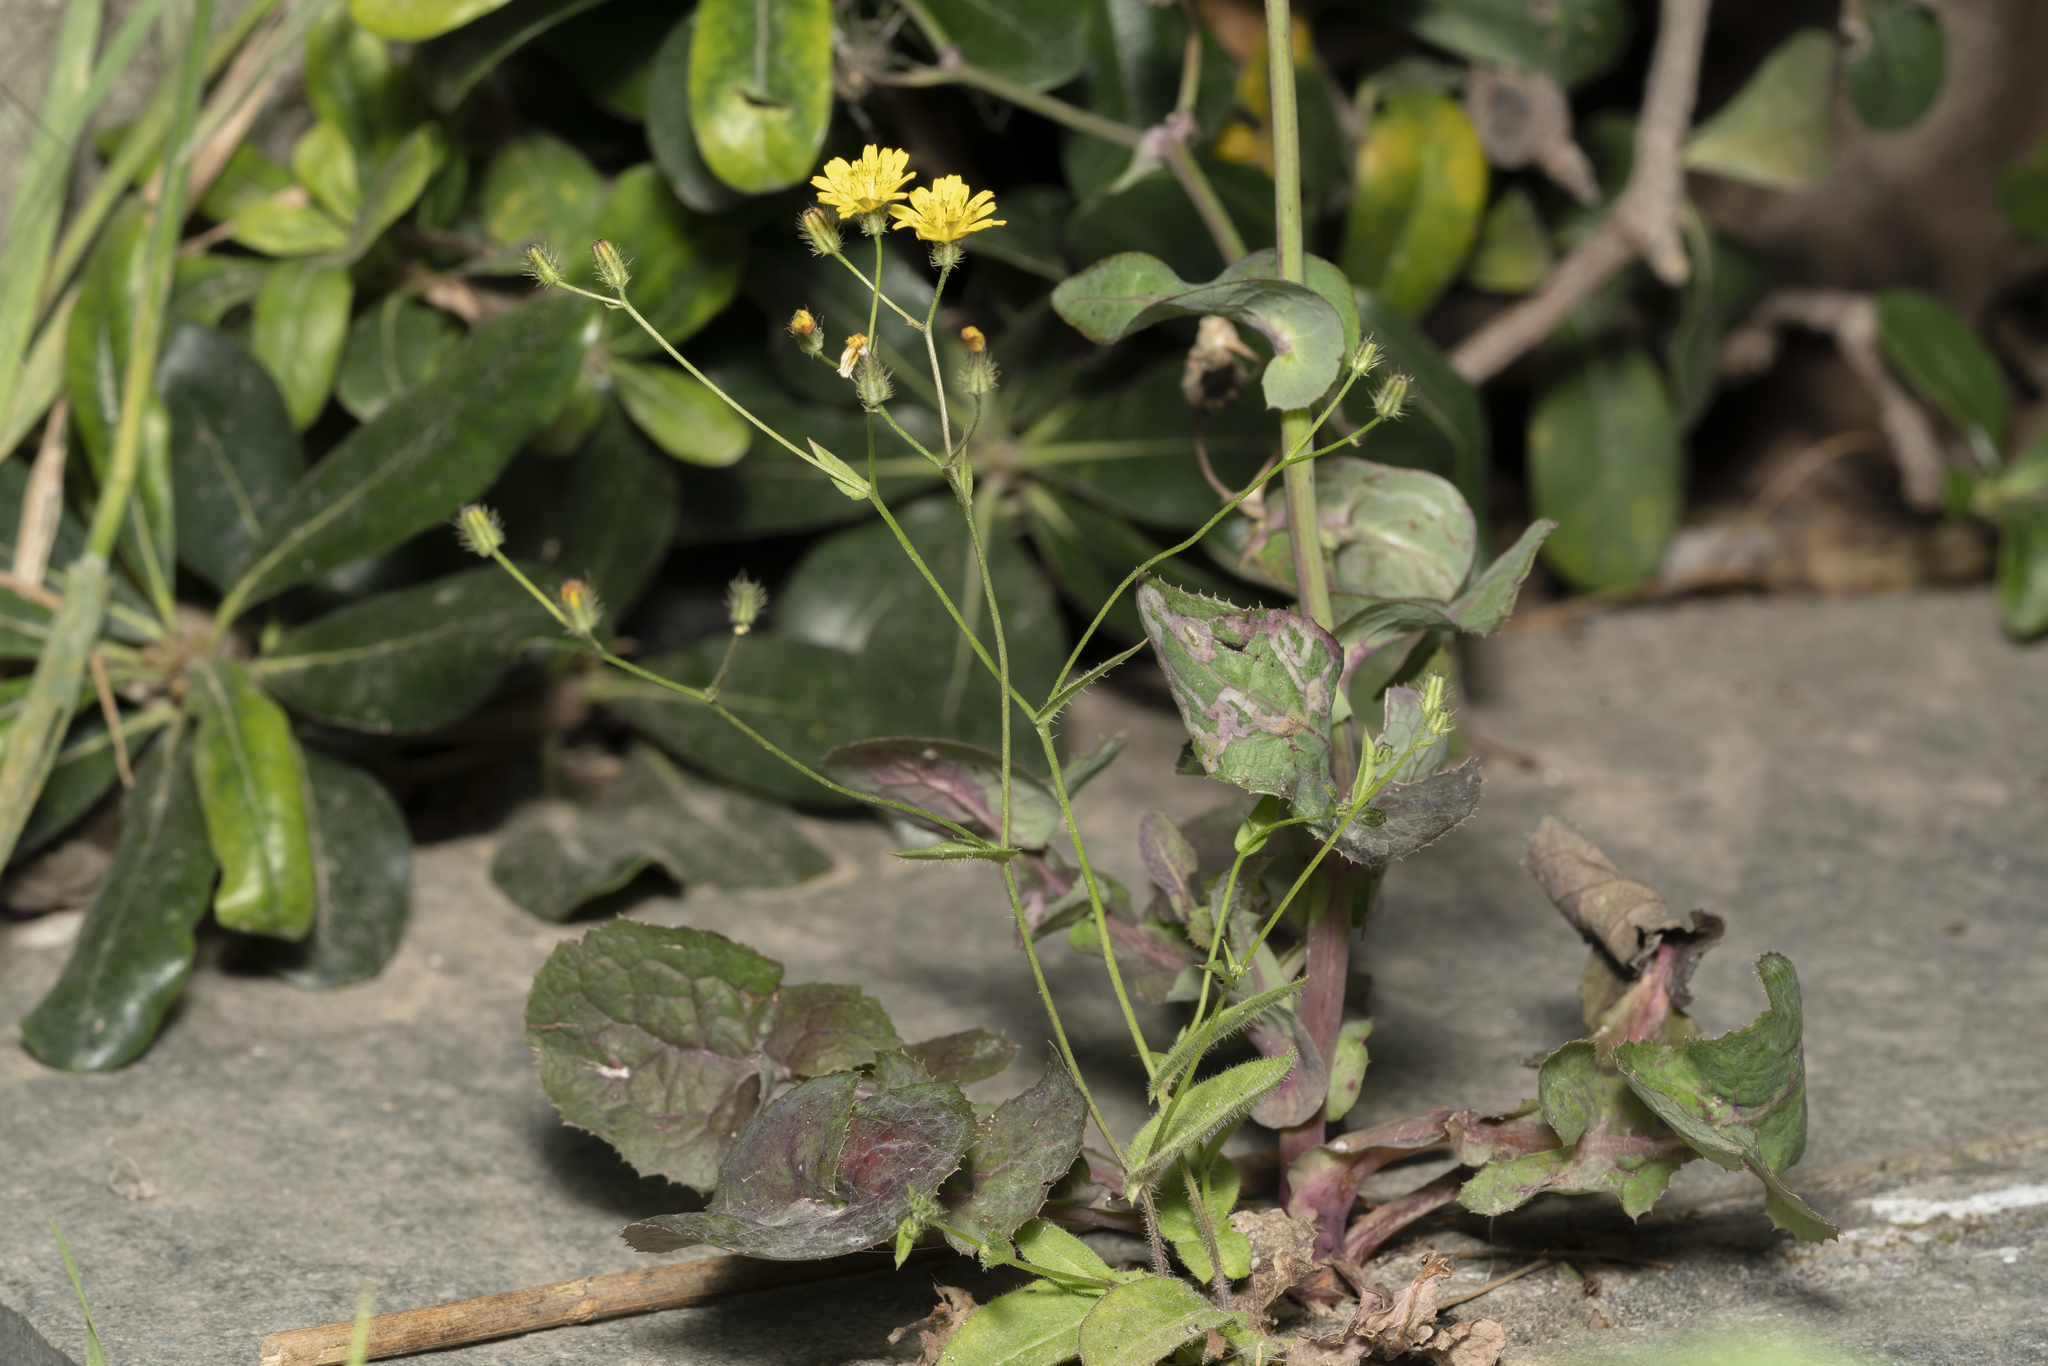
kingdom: Plantae
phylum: Tracheophyta
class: Magnoliopsida
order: Asterales
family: Asteraceae
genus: Crepis
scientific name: Crepis micrantha
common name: Hawk's-beard
